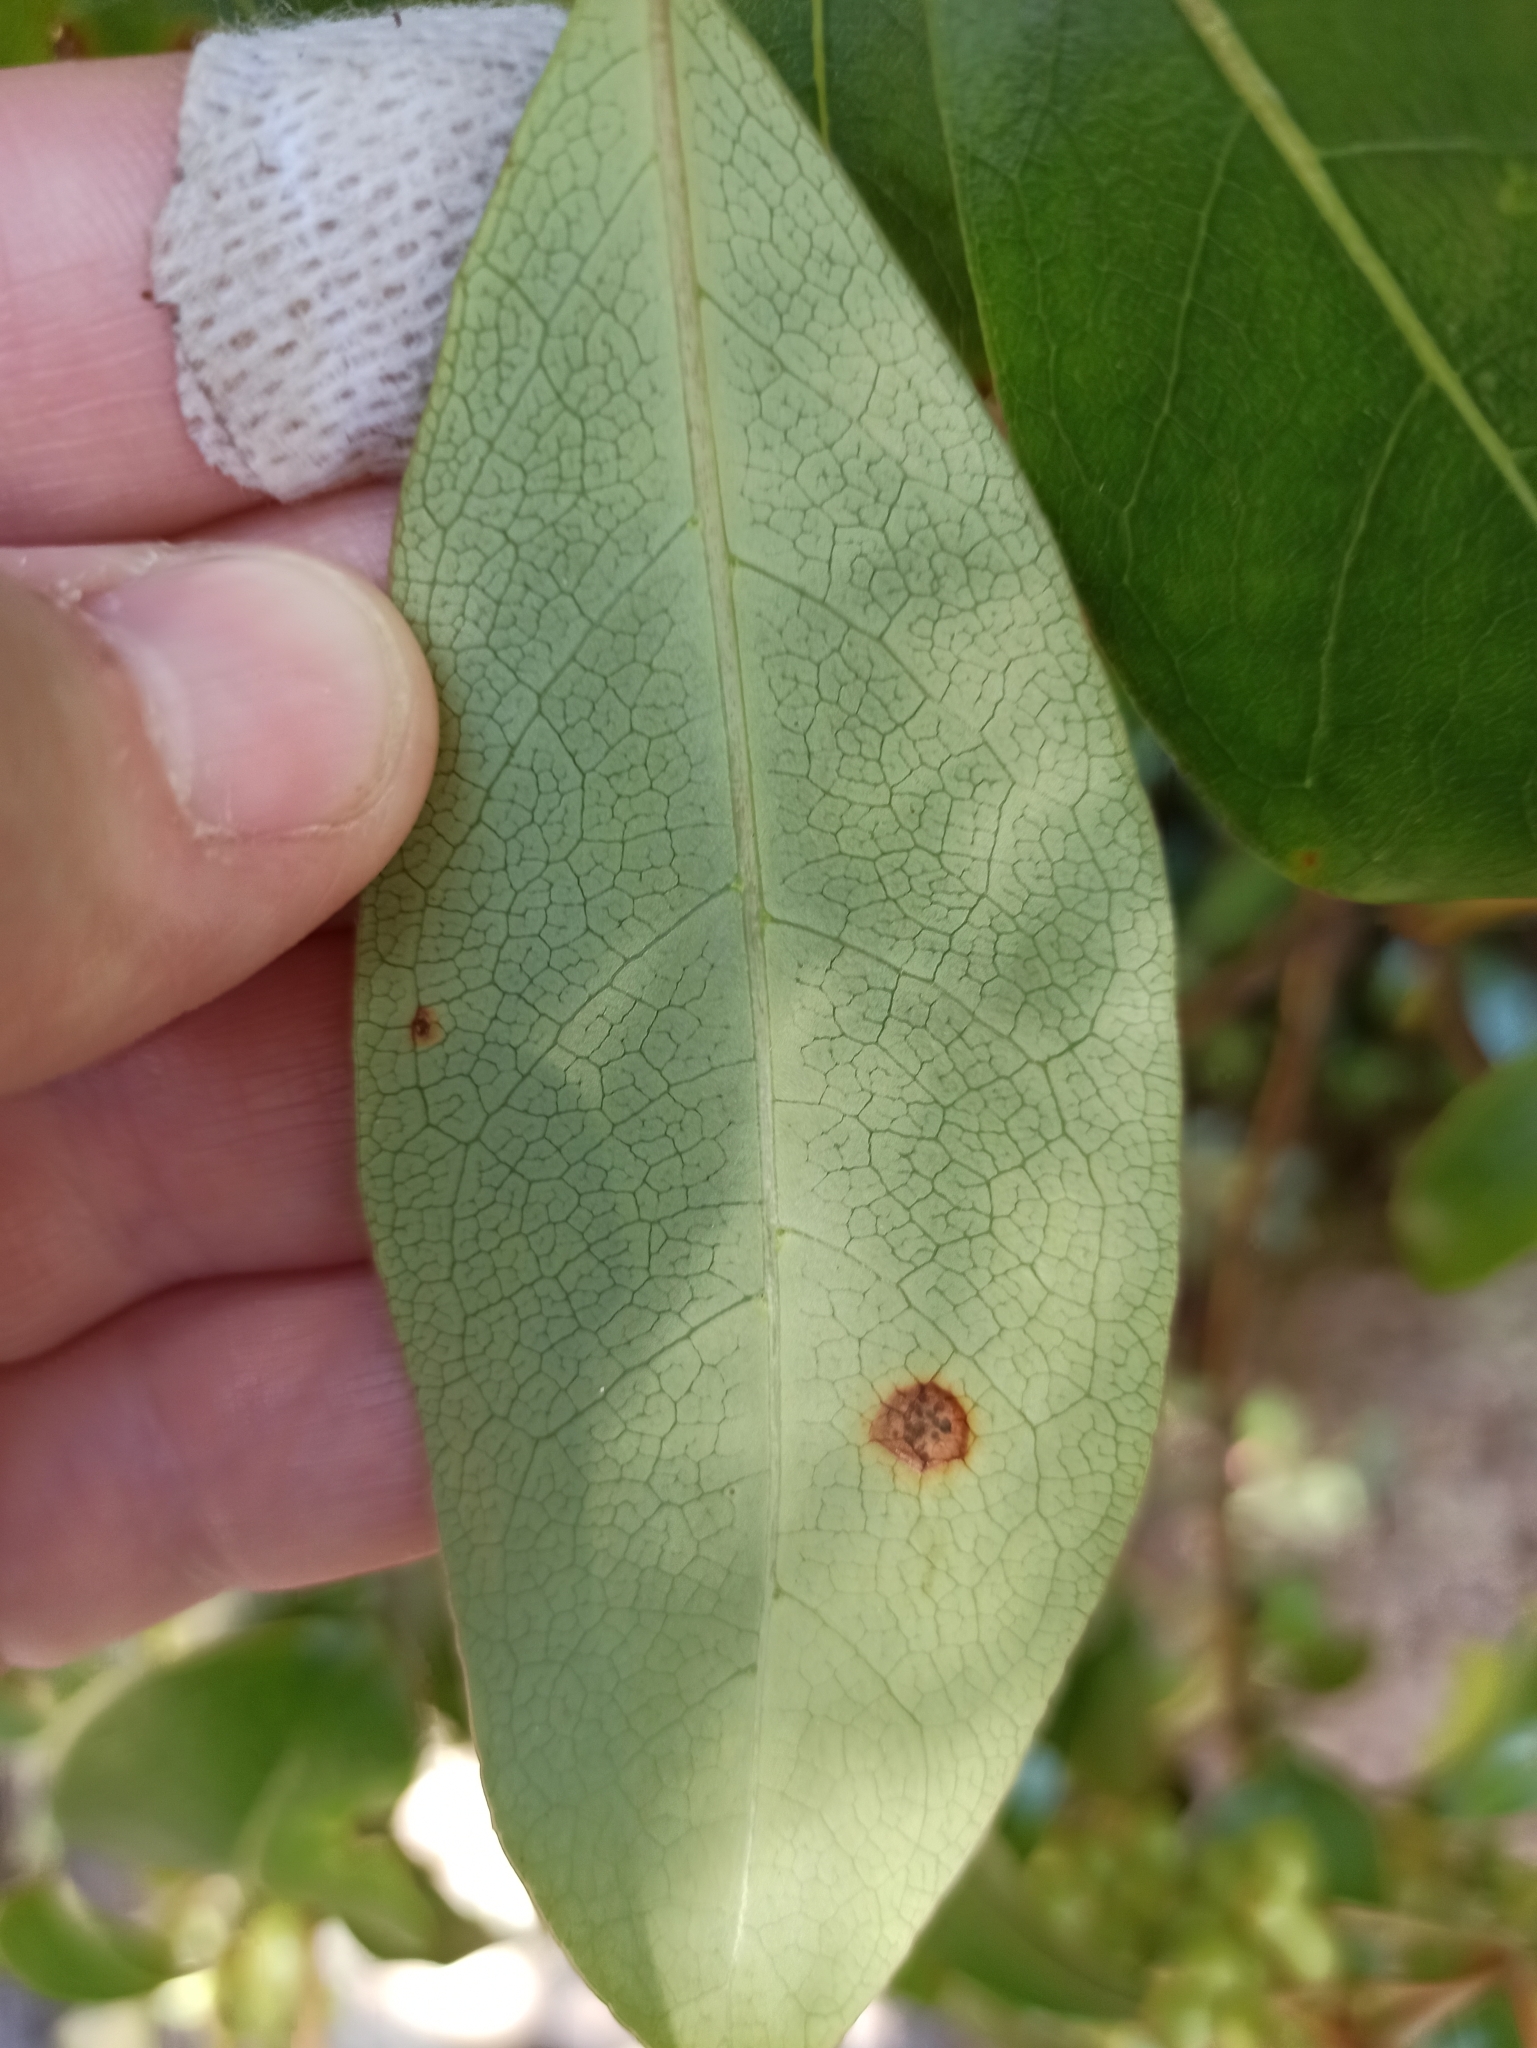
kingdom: Plantae
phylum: Tracheophyta
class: Magnoliopsida
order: Gentianales
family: Rubiaceae
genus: Coprosma
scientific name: Coprosma lucida
